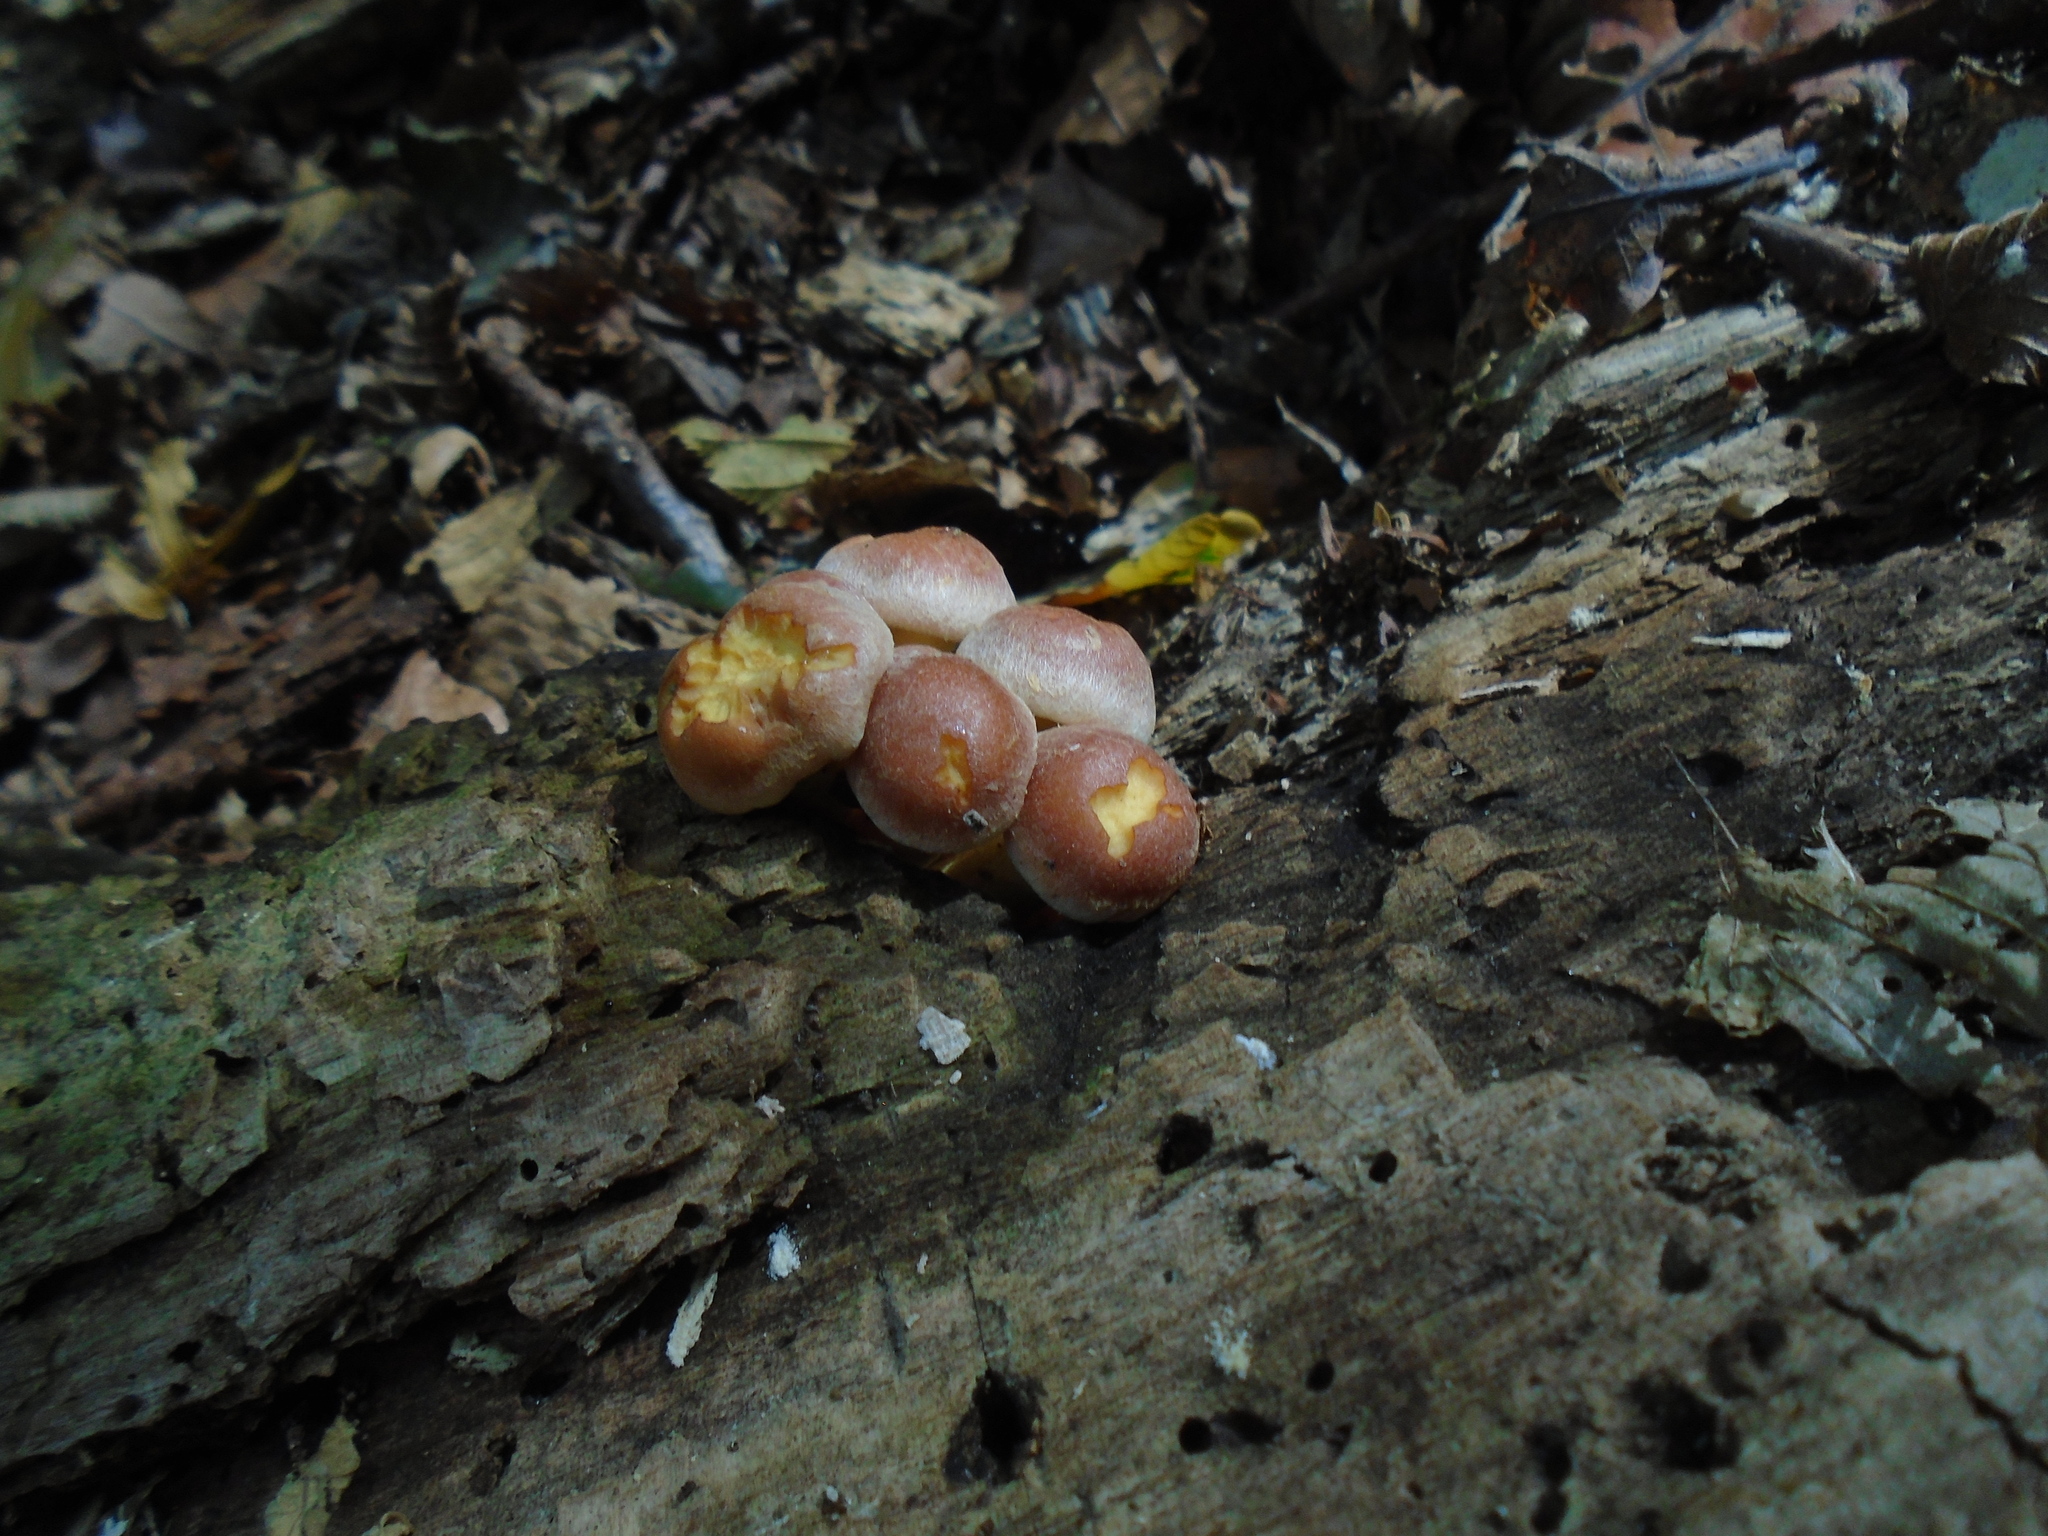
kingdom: Fungi
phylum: Basidiomycota
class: Agaricomycetes
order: Agaricales
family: Strophariaceae
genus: Hypholoma
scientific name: Hypholoma lateritium
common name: Brick caps
